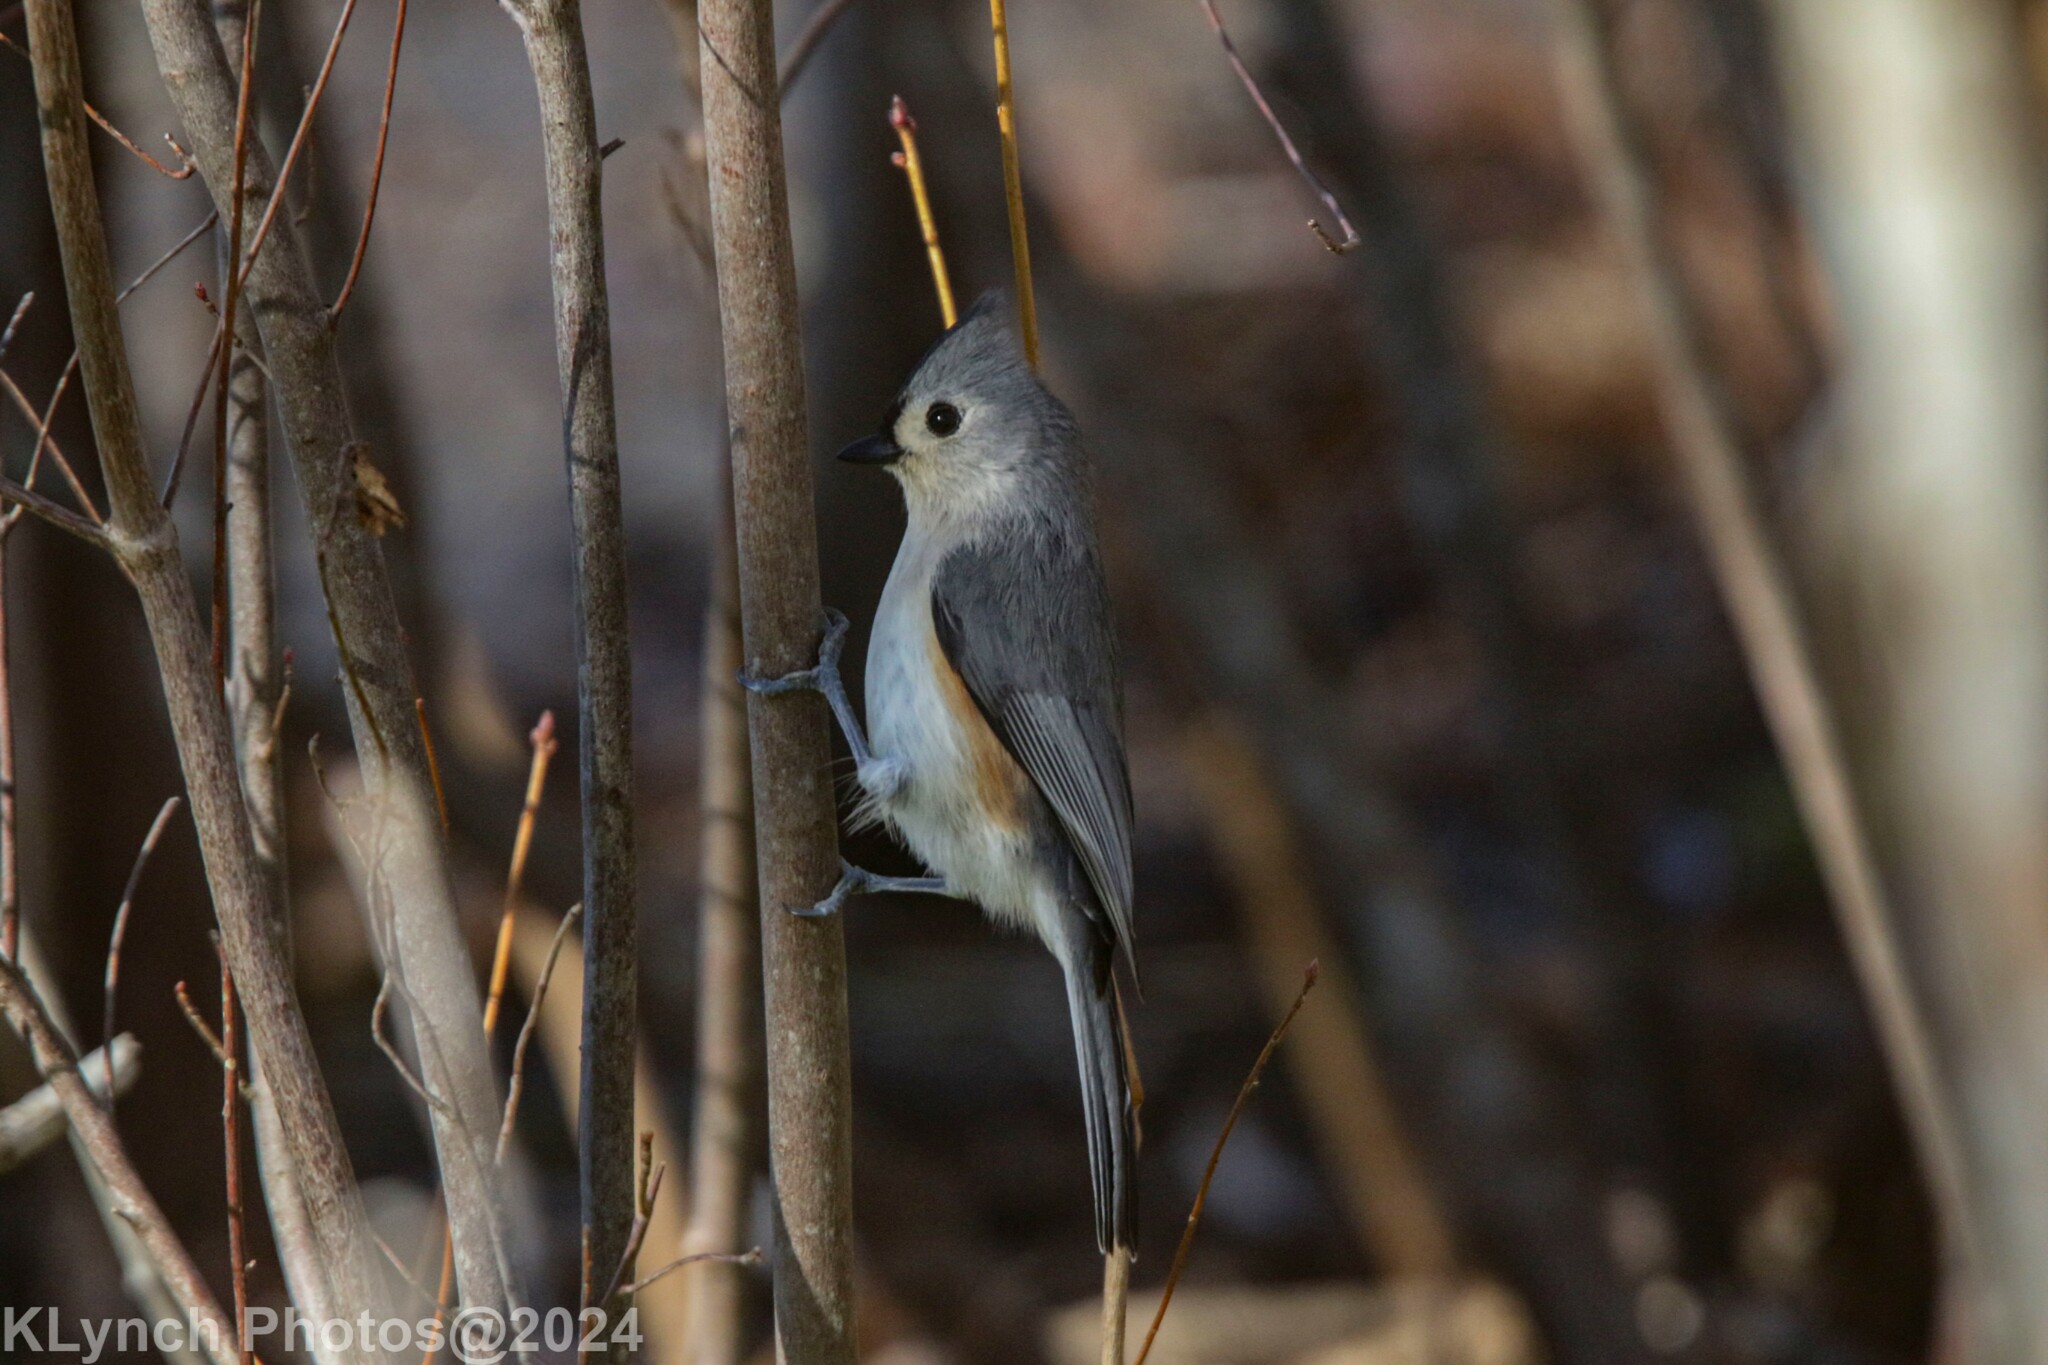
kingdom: Animalia
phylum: Chordata
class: Aves
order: Passeriformes
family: Paridae
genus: Baeolophus
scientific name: Baeolophus bicolor
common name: Tufted titmouse
